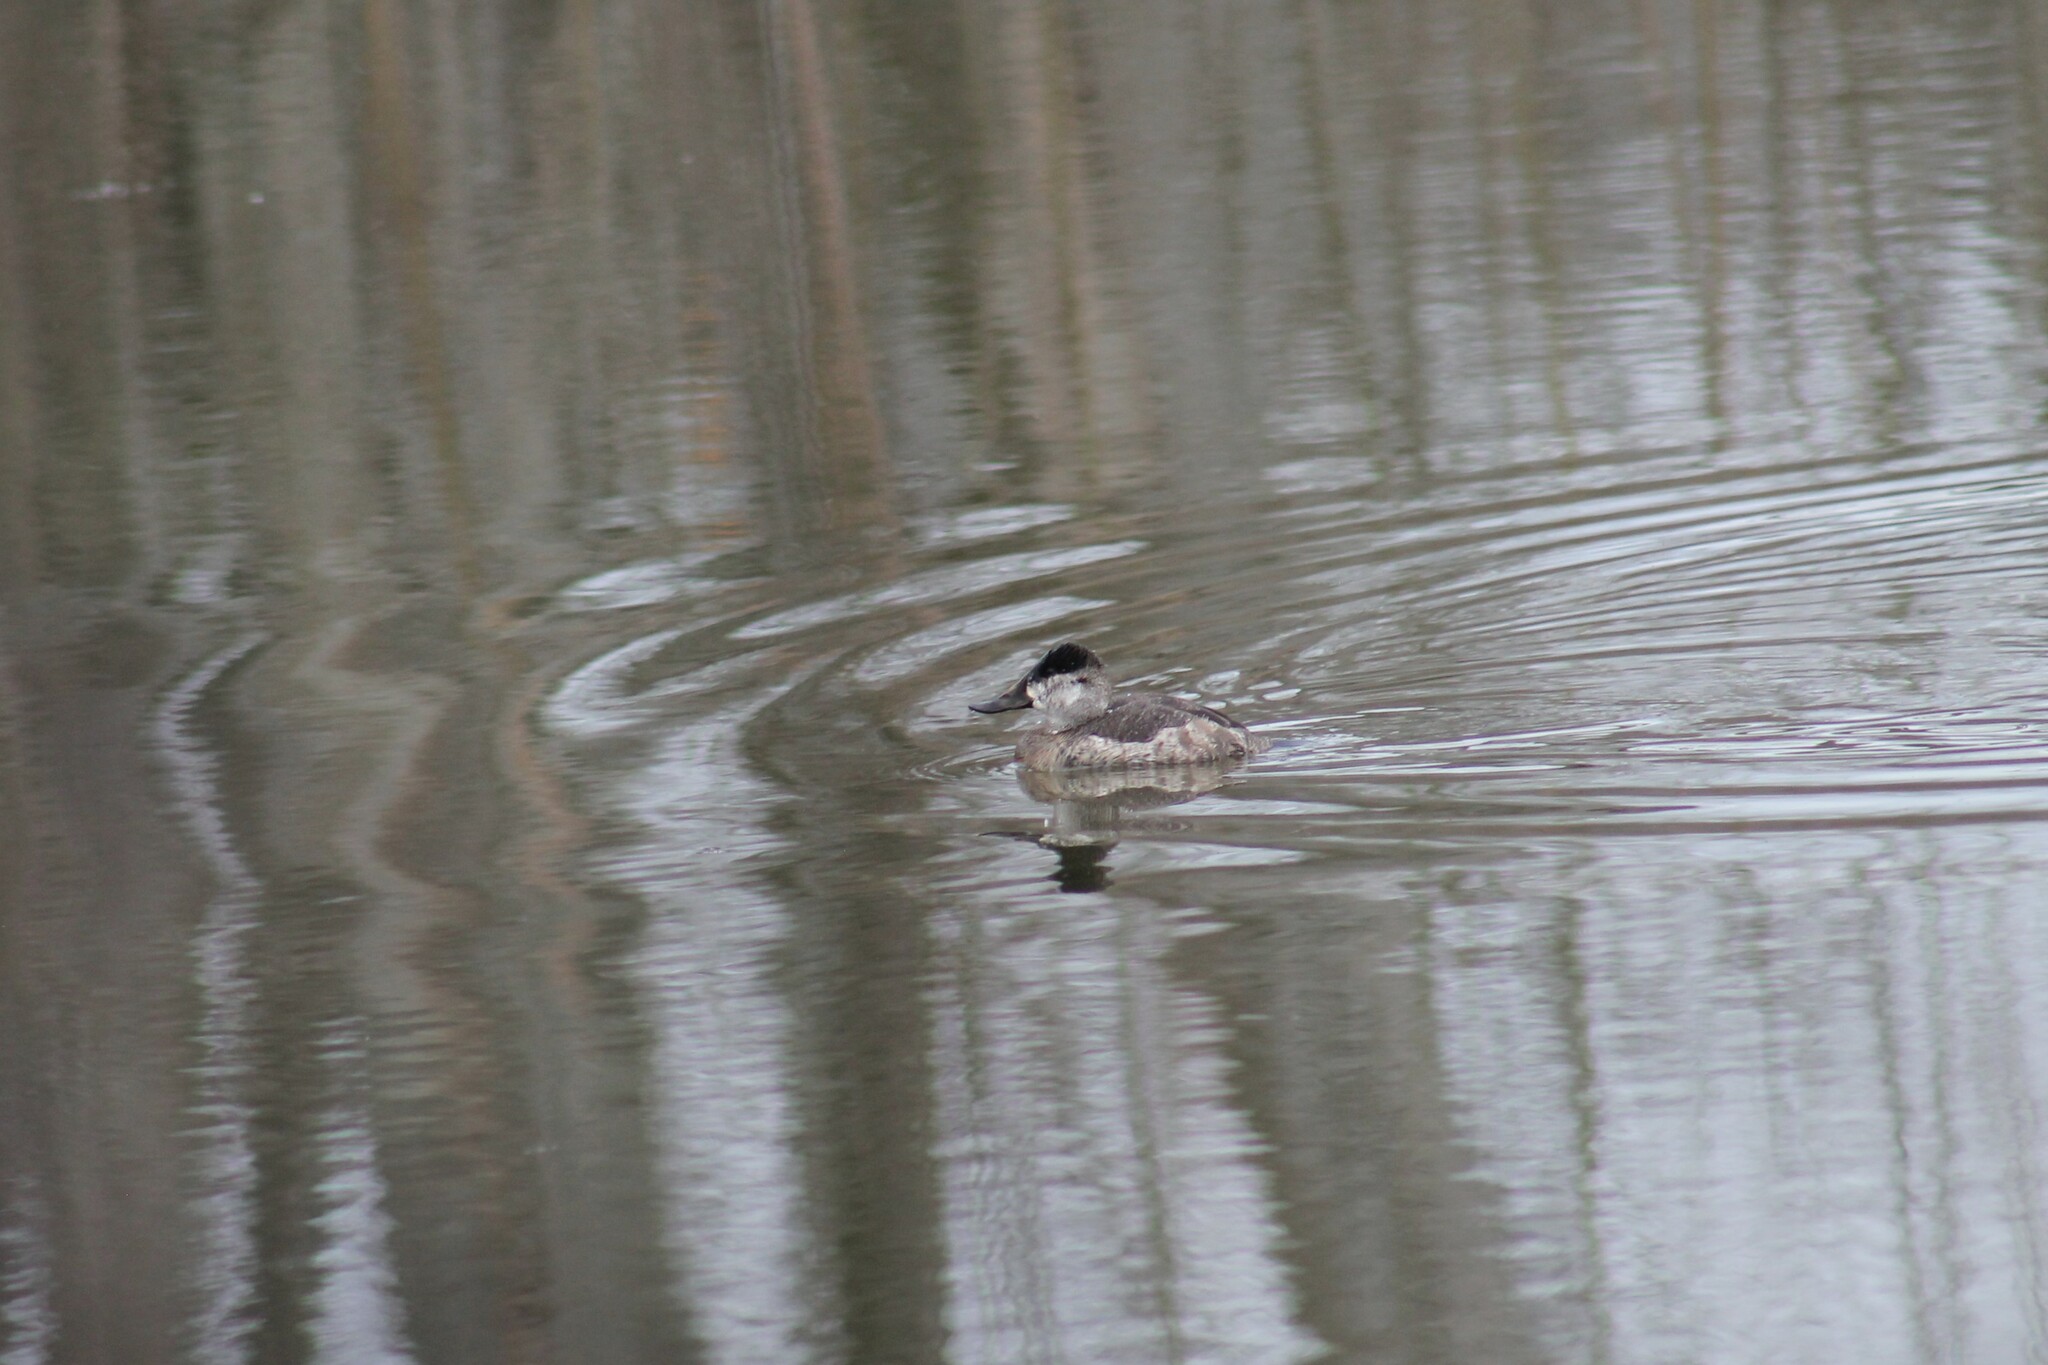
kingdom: Animalia
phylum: Chordata
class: Aves
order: Anseriformes
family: Anatidae
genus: Oxyura
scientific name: Oxyura jamaicensis
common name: Ruddy duck
